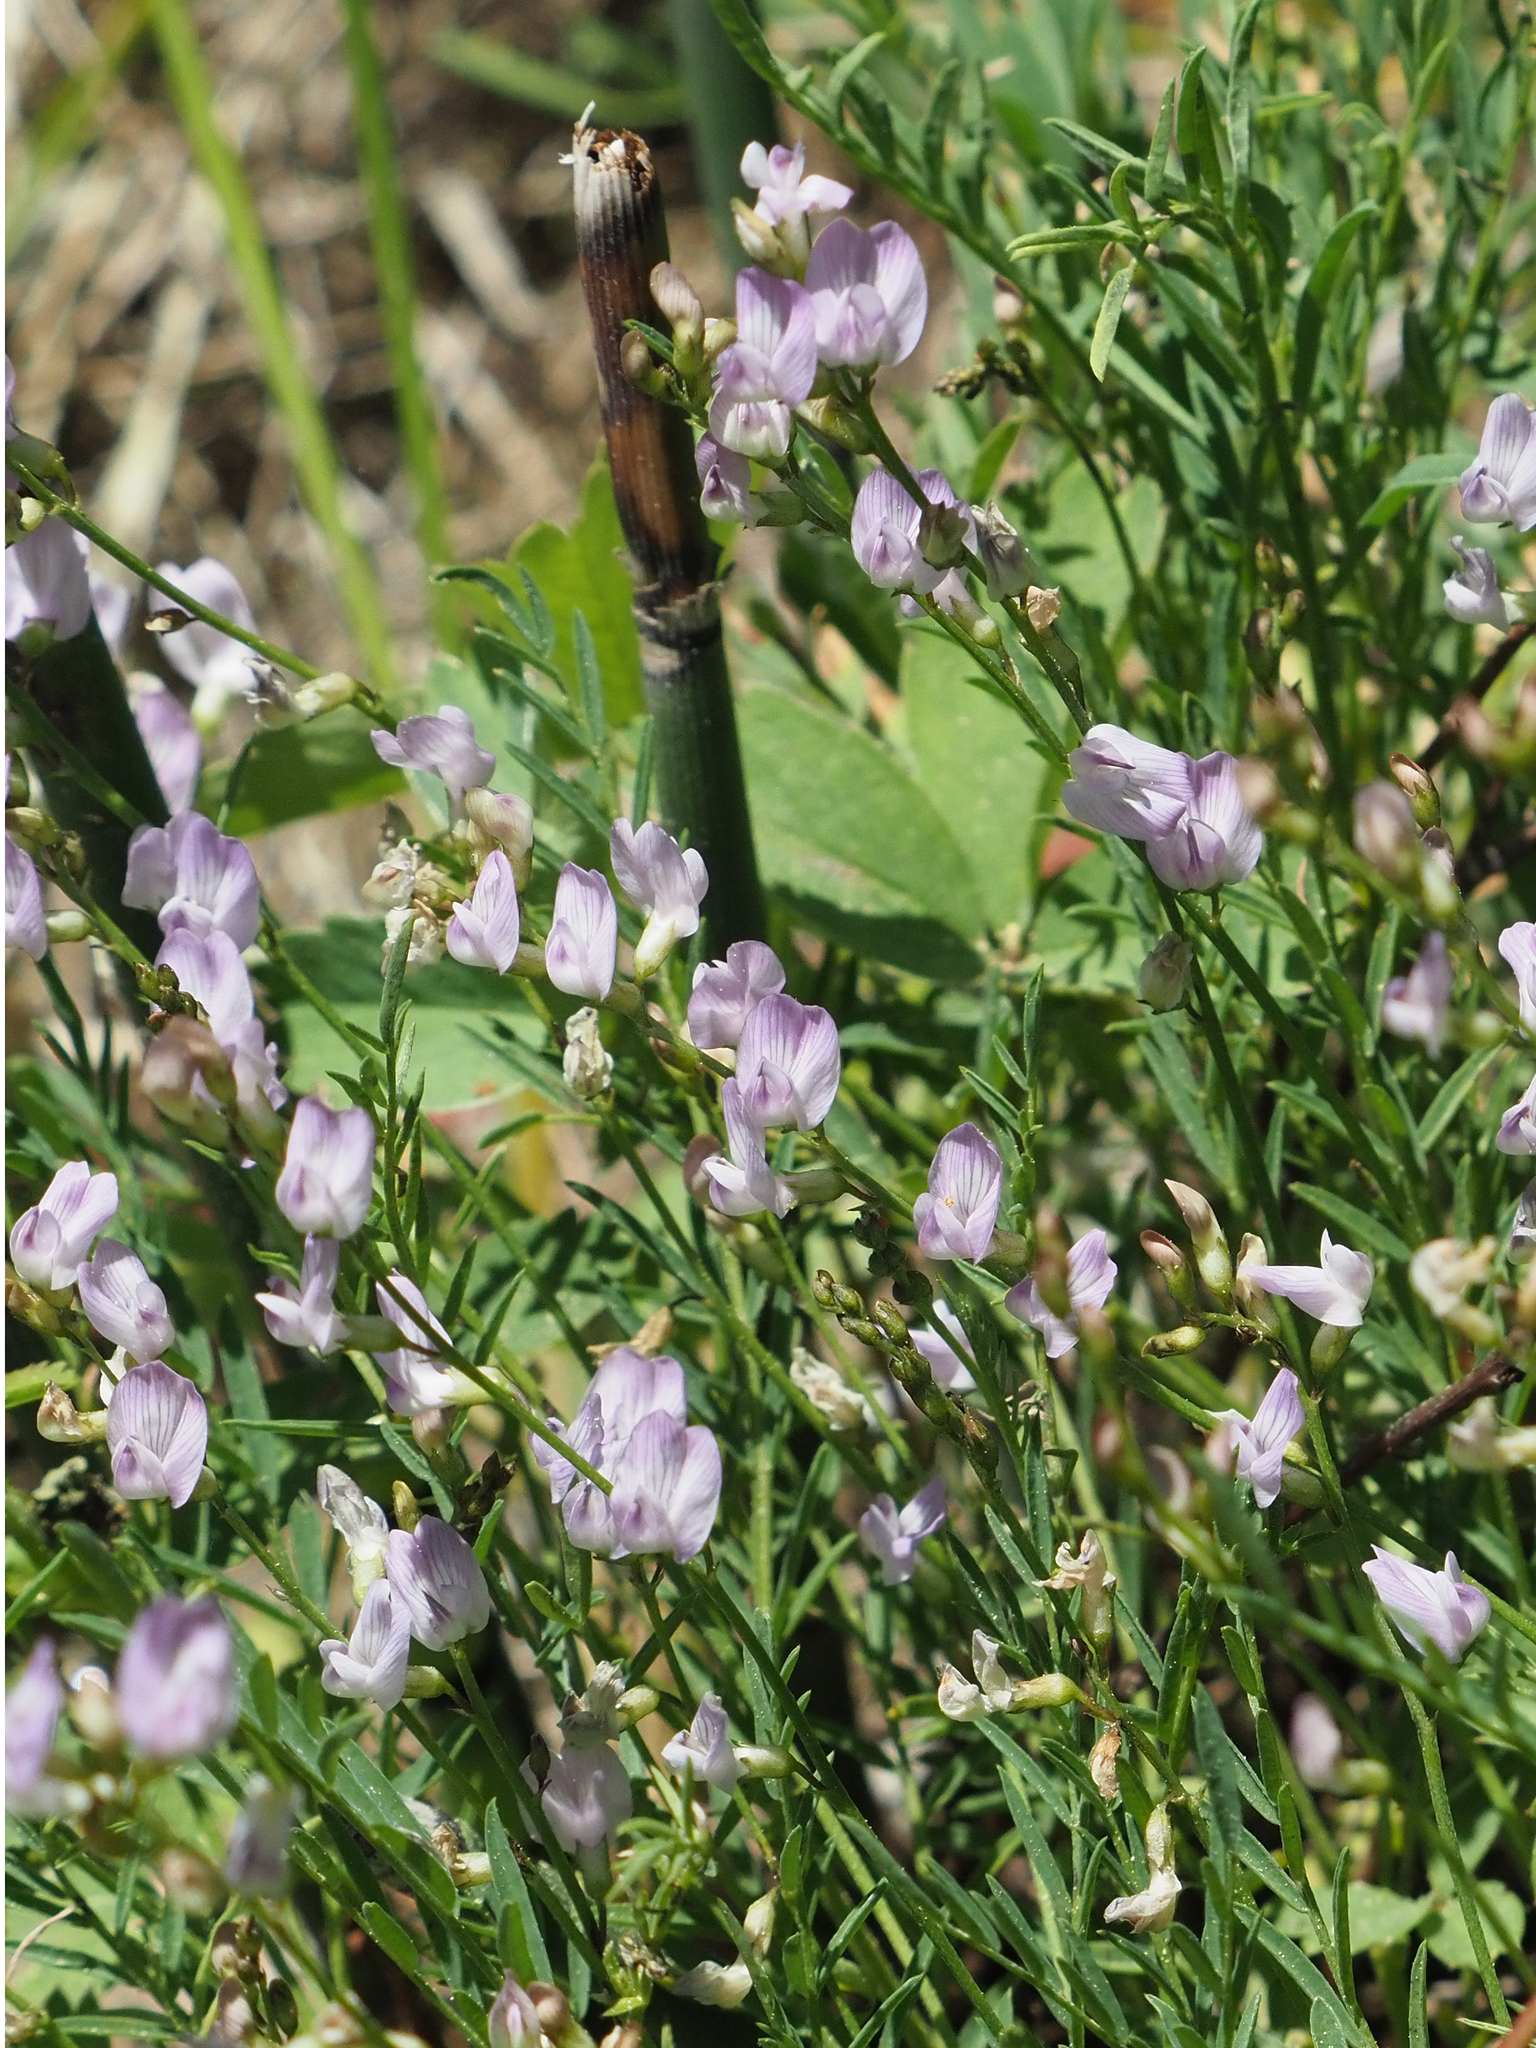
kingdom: Plantae
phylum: Tracheophyta
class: Magnoliopsida
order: Fabales
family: Fabaceae
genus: Astragalus
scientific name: Astragalus miser
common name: Timber milkvetch
